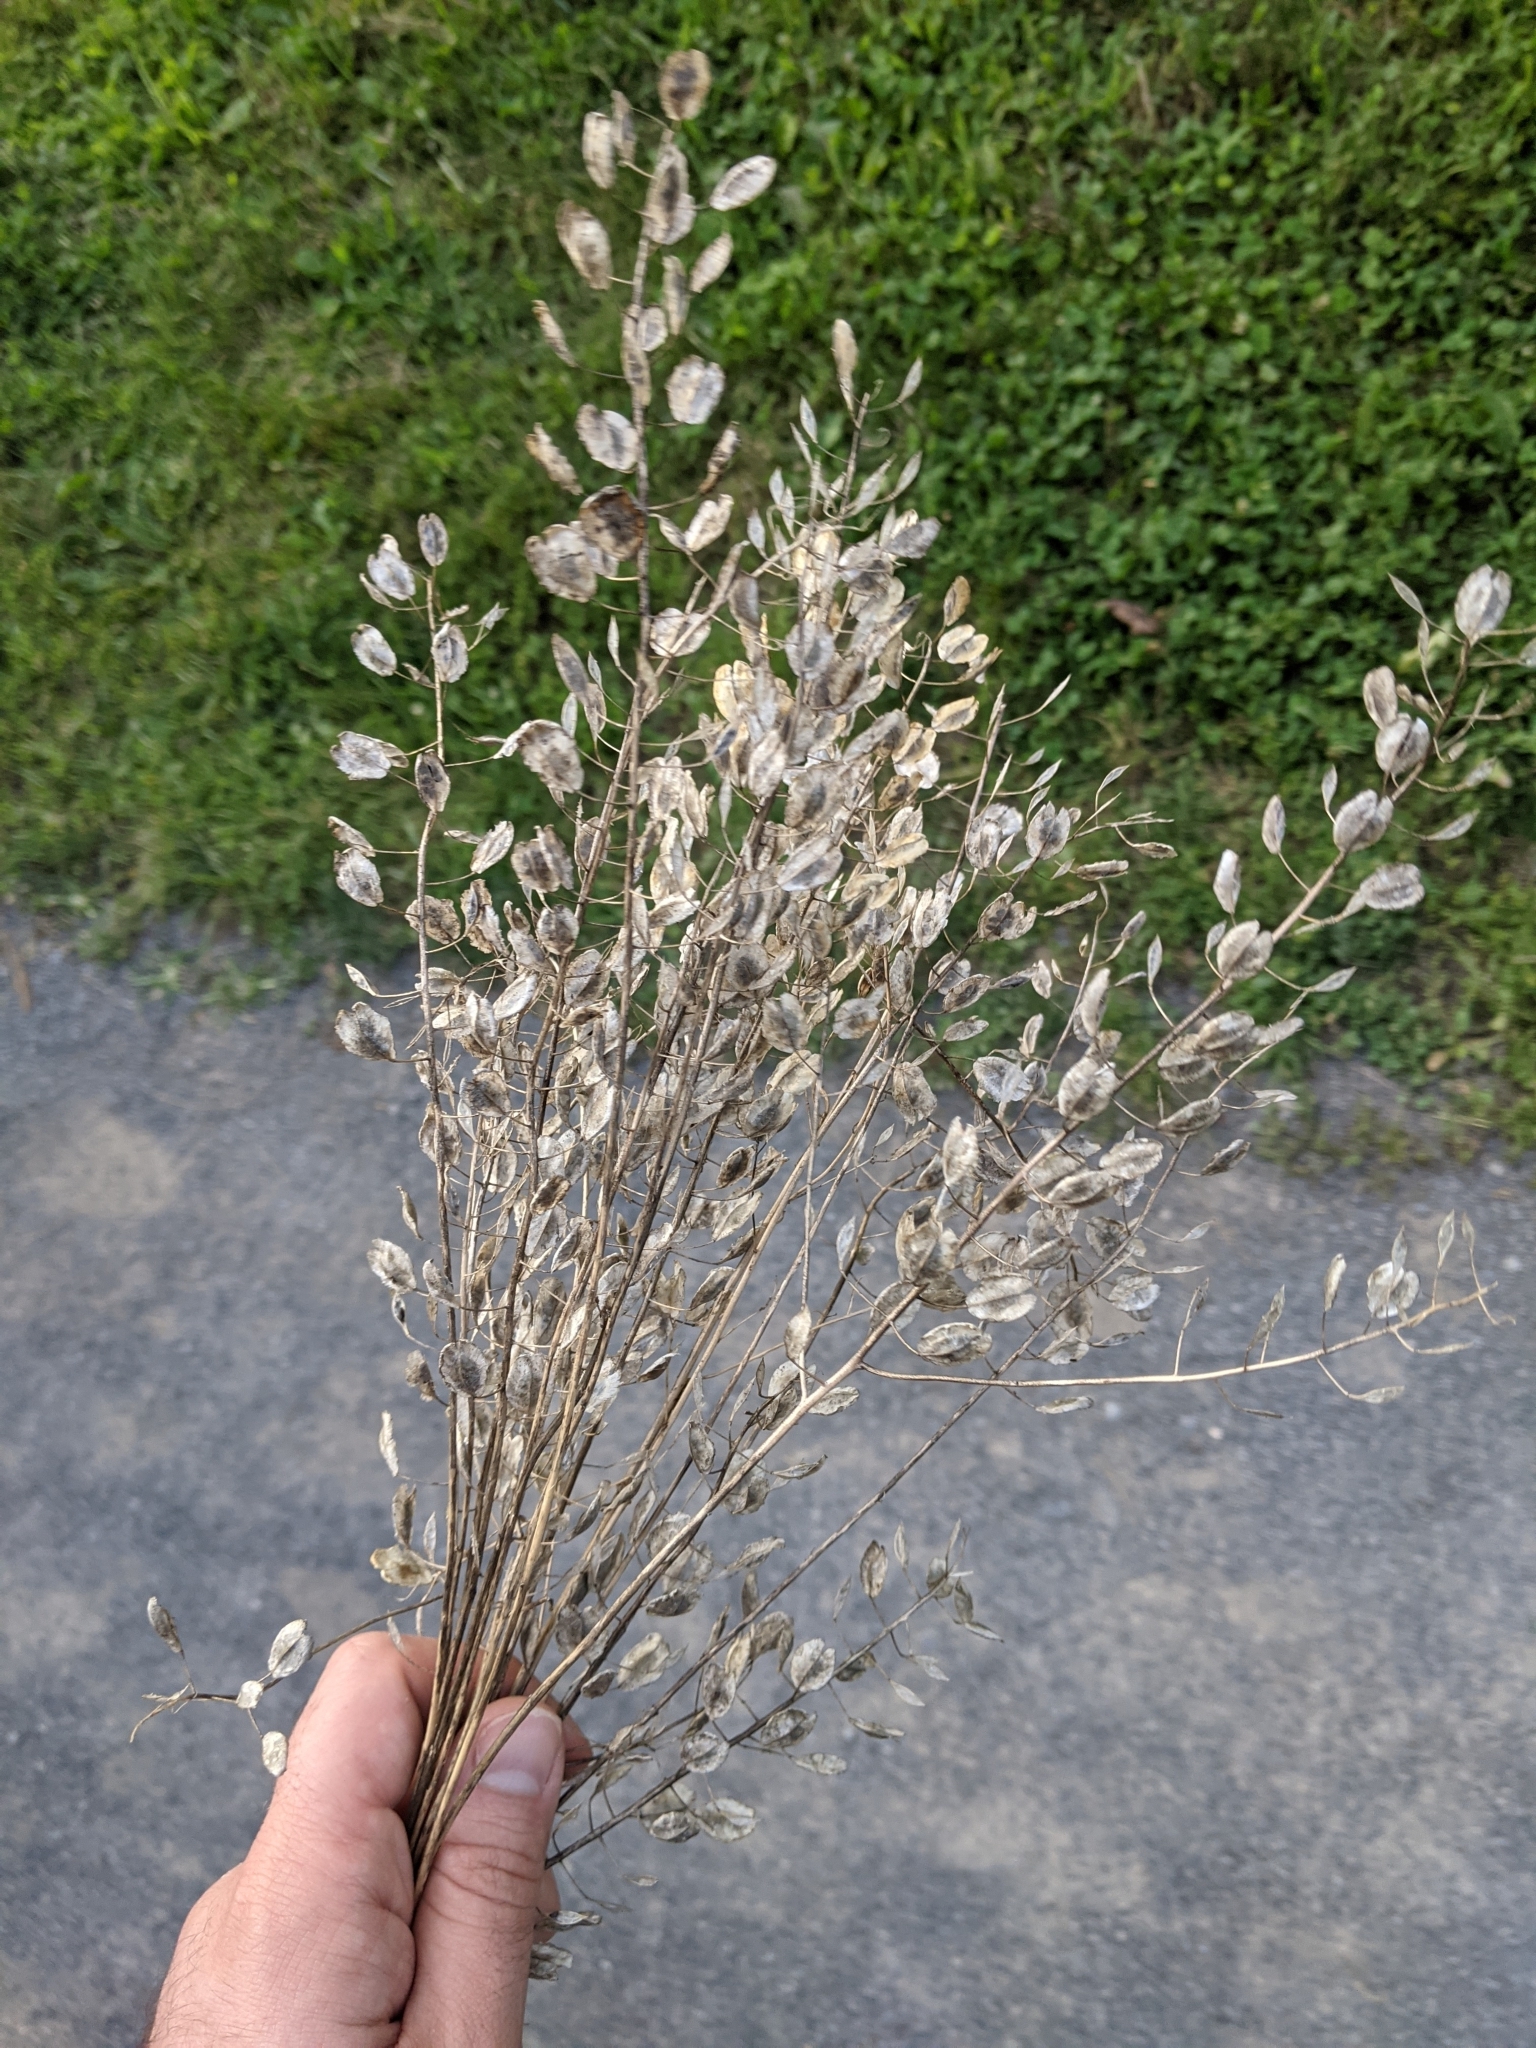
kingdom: Plantae
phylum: Tracheophyta
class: Magnoliopsida
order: Brassicales
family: Brassicaceae
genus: Thlaspi
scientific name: Thlaspi arvense
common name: Field pennycress
